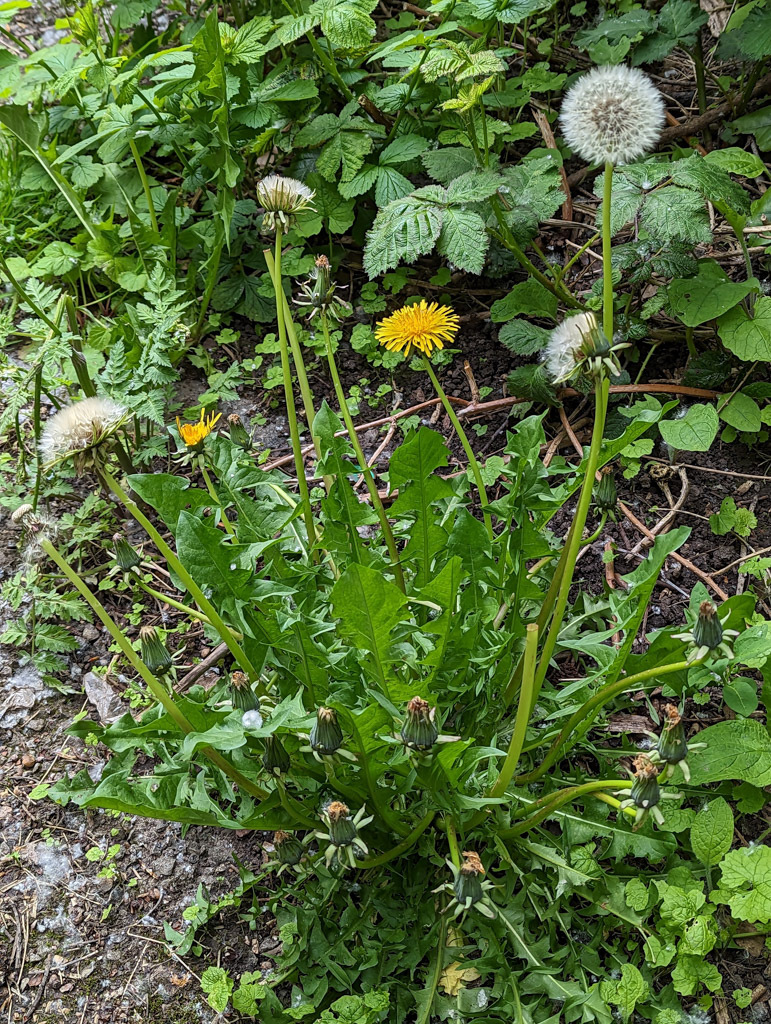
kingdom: Plantae
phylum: Tracheophyta
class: Magnoliopsida
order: Asterales
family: Asteraceae
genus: Taraxacum
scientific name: Taraxacum officinale
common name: Common dandelion
